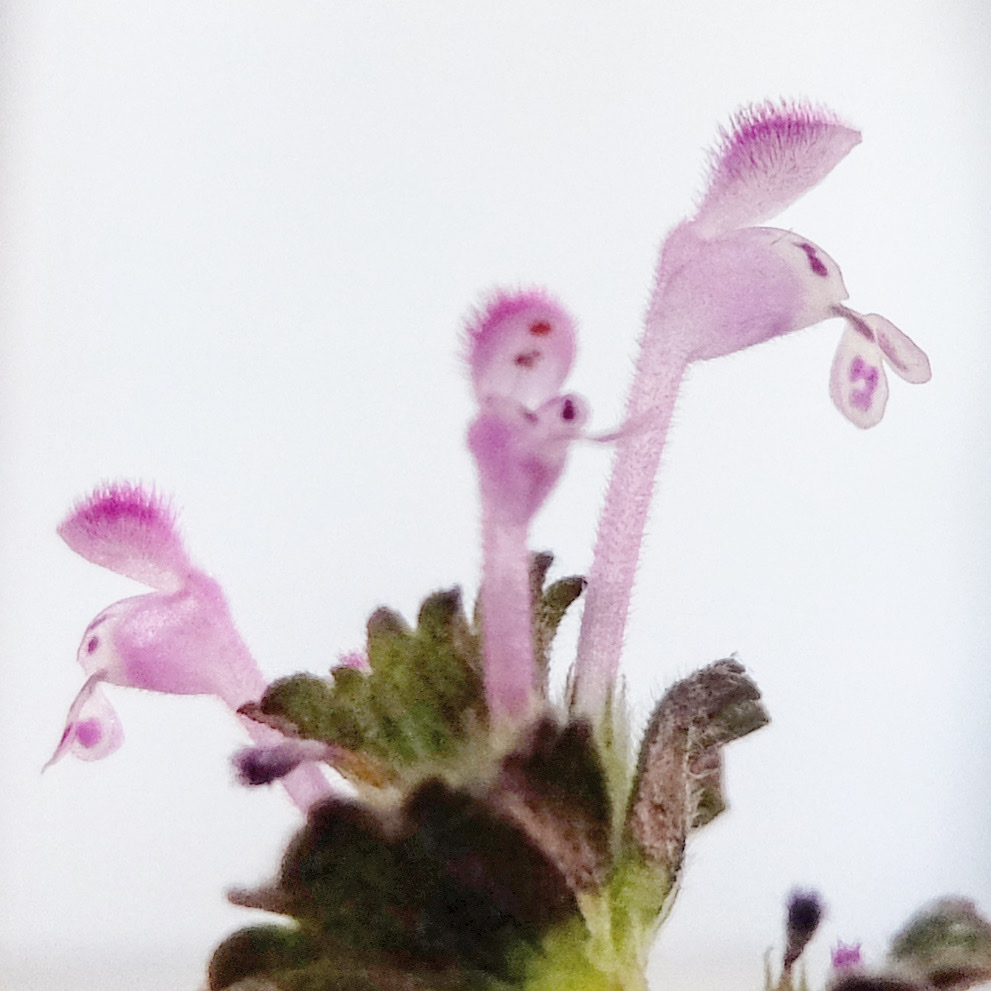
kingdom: Plantae
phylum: Tracheophyta
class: Magnoliopsida
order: Lamiales
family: Lamiaceae
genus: Lamium
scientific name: Lamium amplexicaule
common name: Henbit dead-nettle
